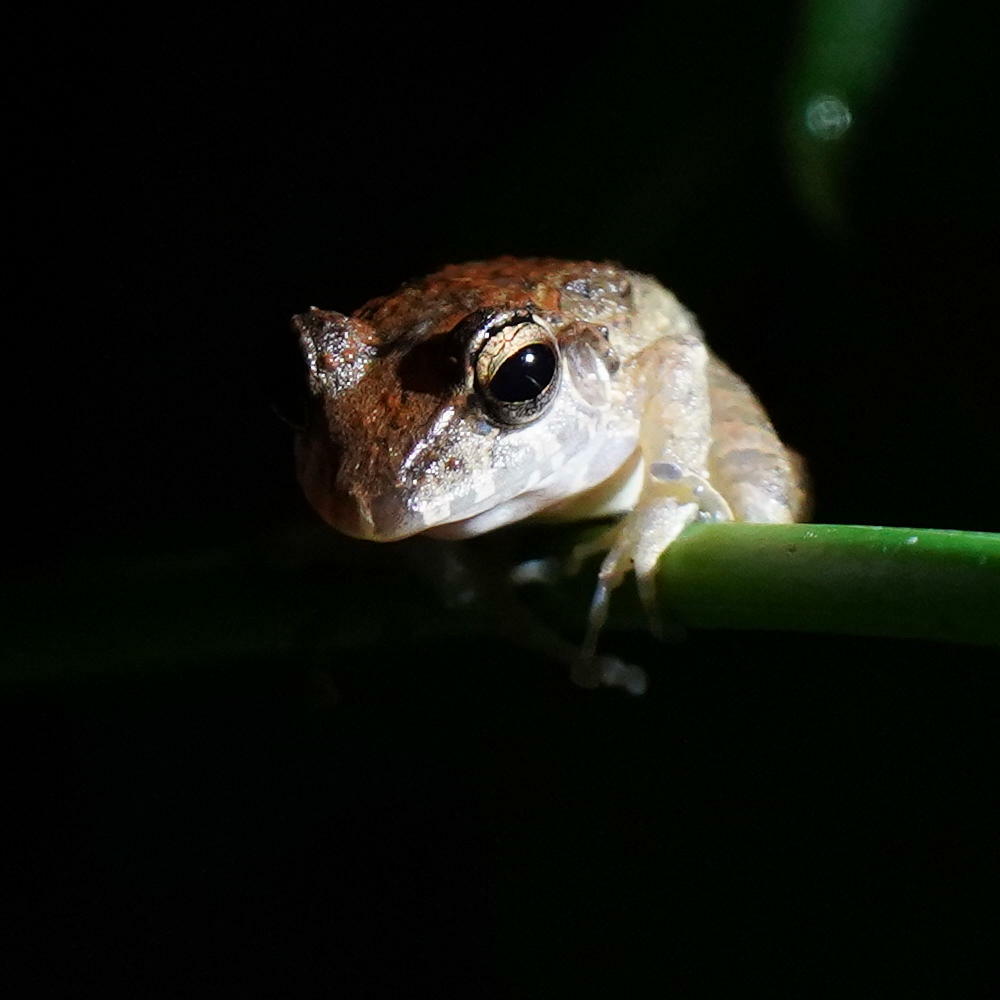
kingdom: Animalia
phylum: Chordata
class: Amphibia
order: Anura
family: Craugastoridae
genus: Craugastor
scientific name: Craugastor fitzingeri
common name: Fitzinger's robber frog
